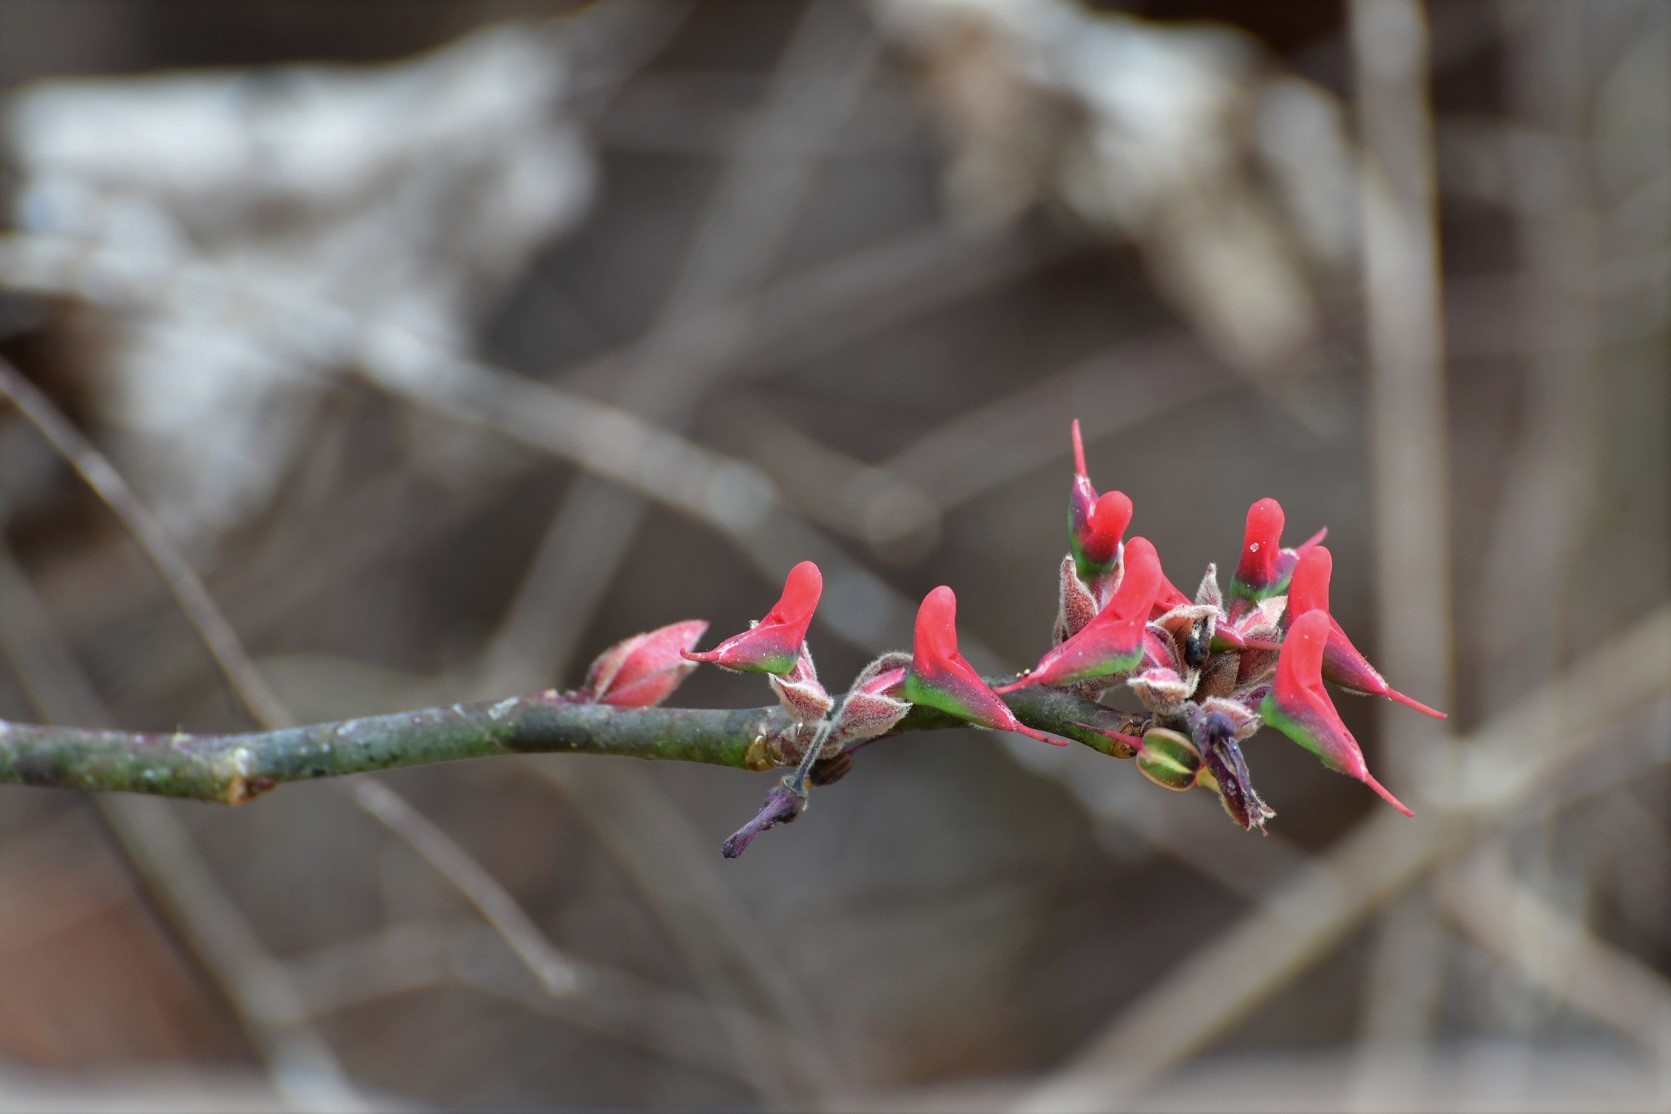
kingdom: Plantae
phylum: Tracheophyta
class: Magnoliopsida
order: Malpighiales
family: Euphorbiaceae
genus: Euphorbia
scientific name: Euphorbia calcarata
